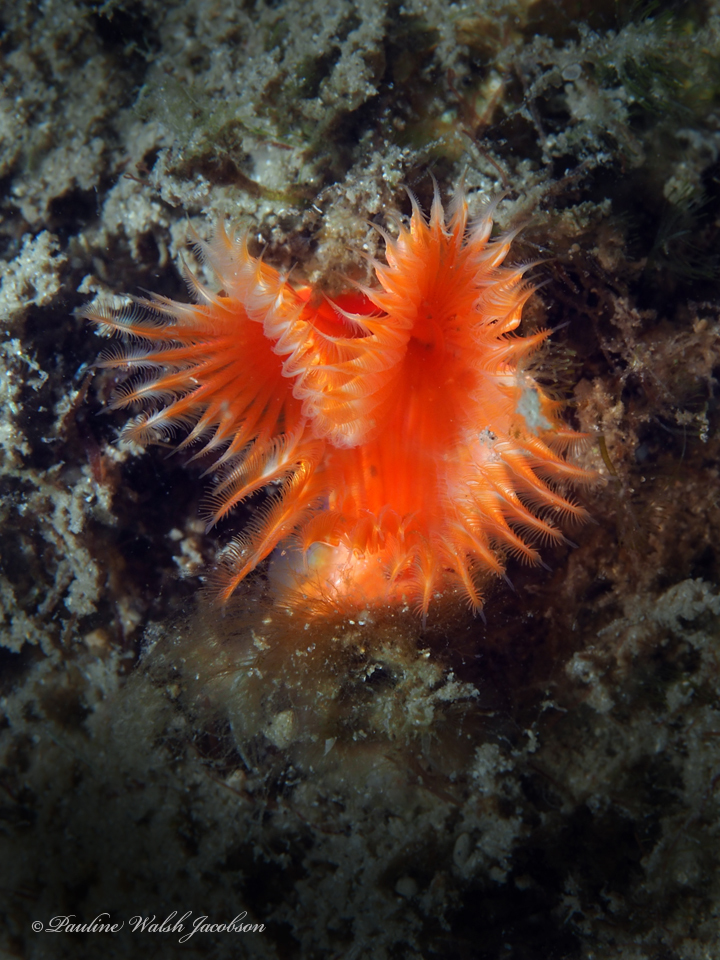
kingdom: Animalia
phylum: Annelida
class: Polychaeta
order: Sabellida
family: Serpulidae
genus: Pomatostegus
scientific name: Pomatostegus stellatus
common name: Star tubeworm
